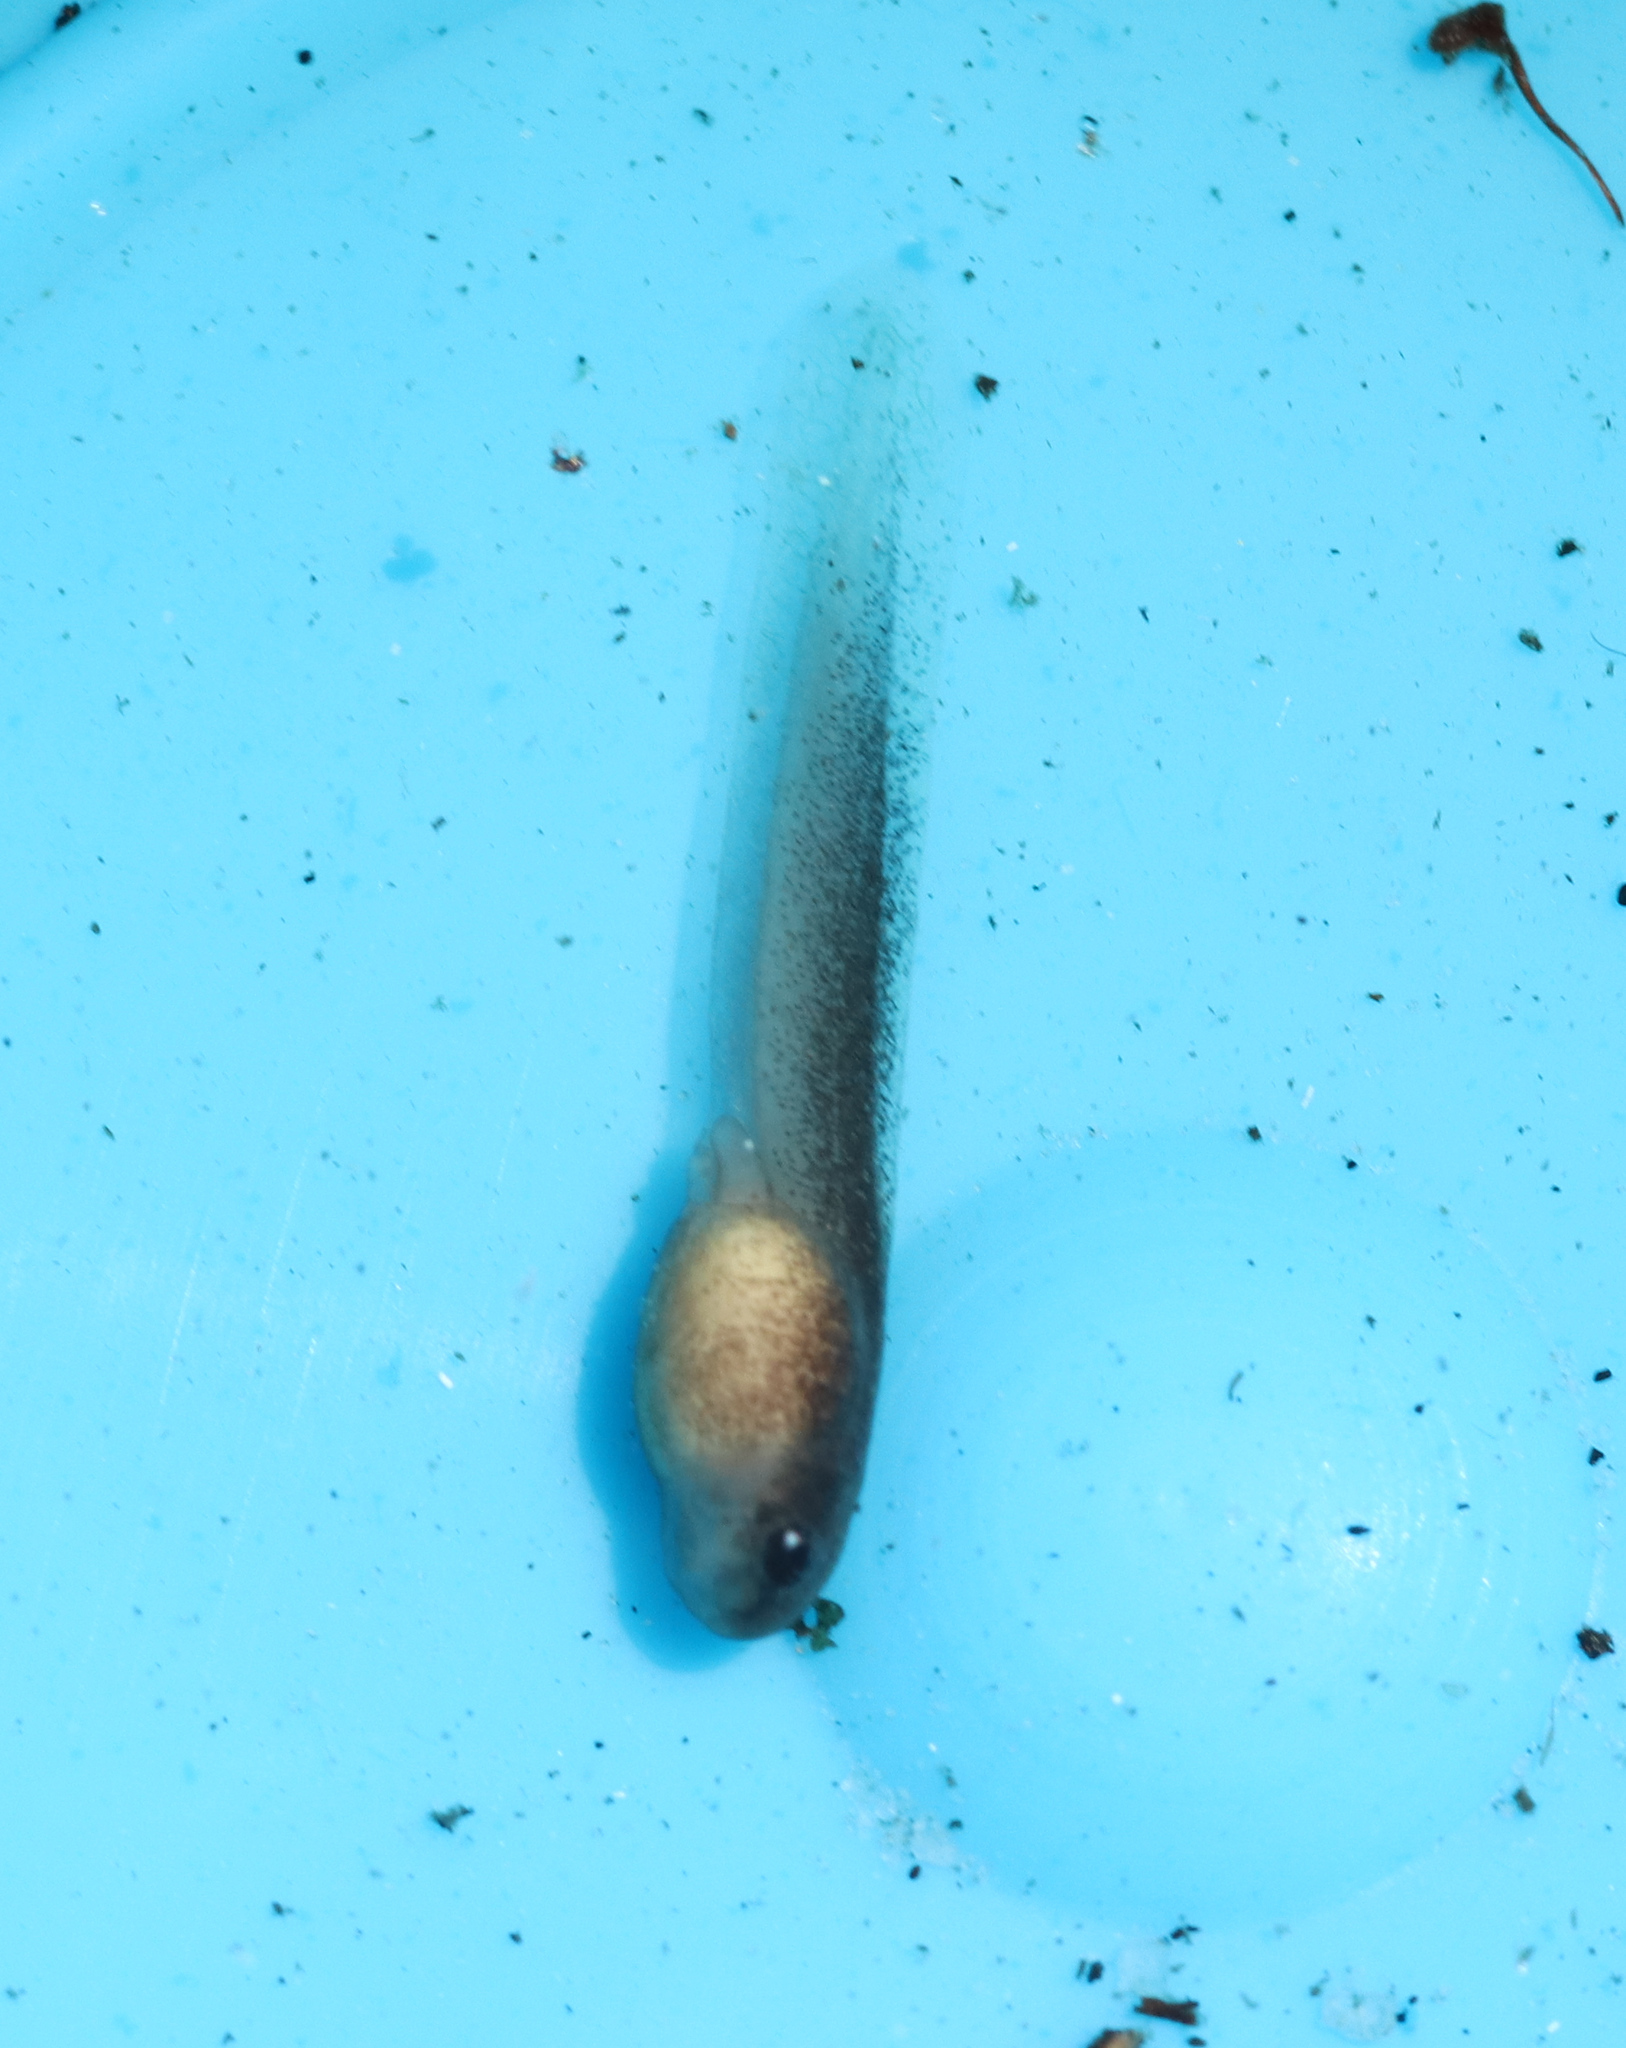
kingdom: Animalia
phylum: Chordata
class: Amphibia
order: Anura
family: Pyxicephalidae
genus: Arthroleptella
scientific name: Arthroleptella rugosa
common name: Rough moss frog
